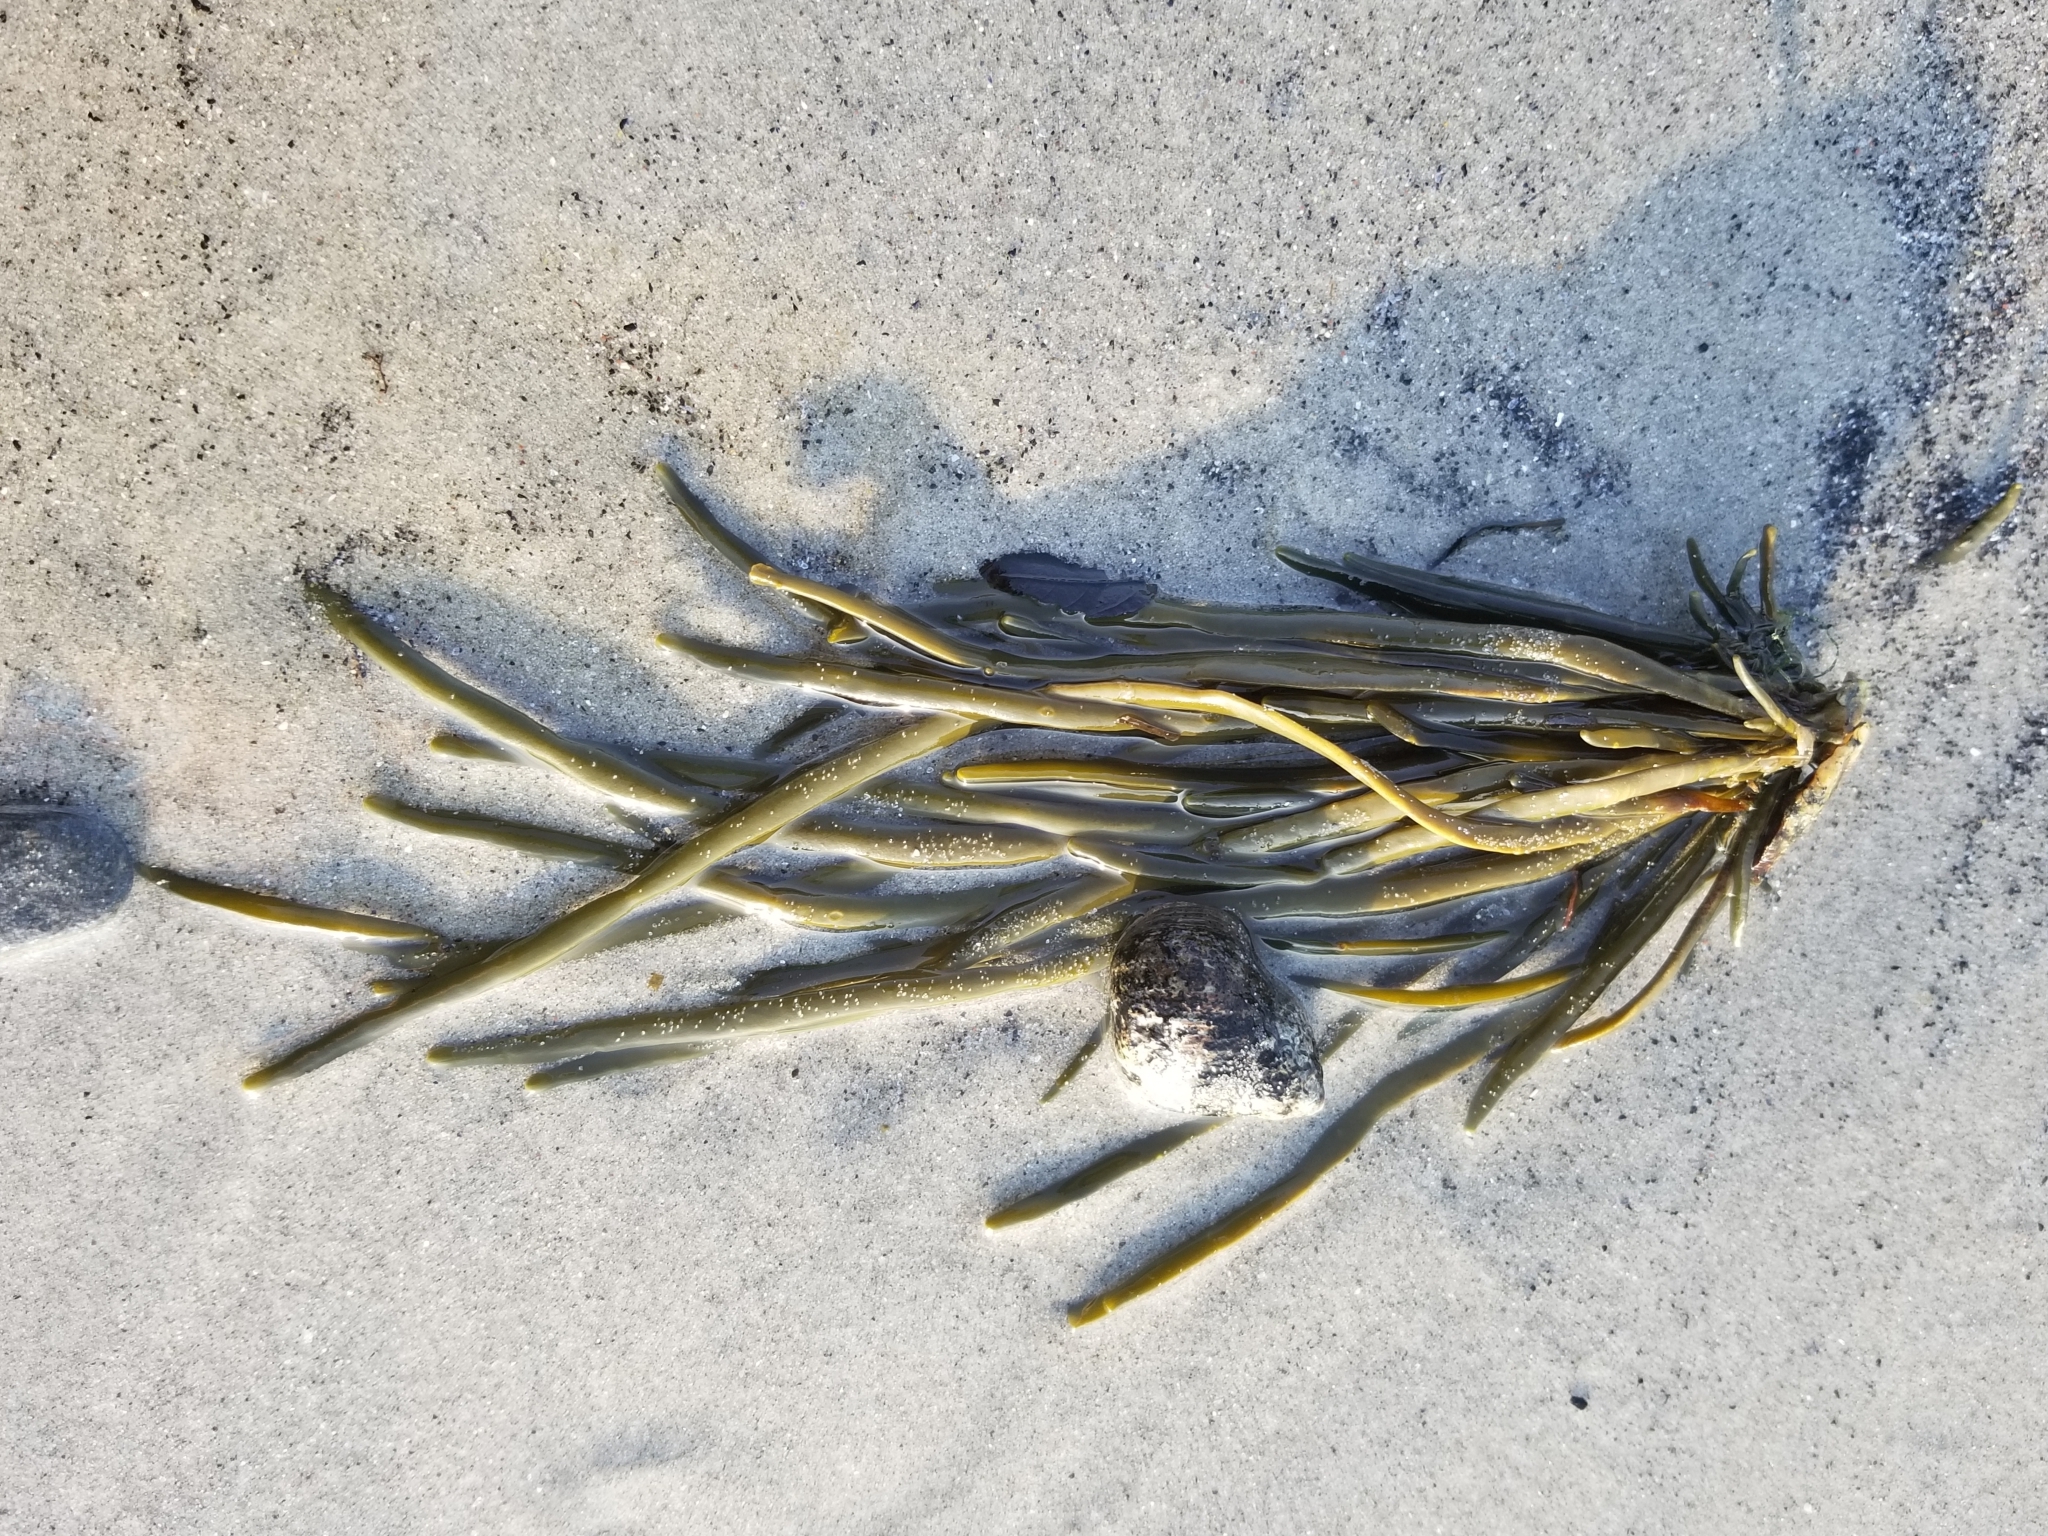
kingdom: Chromista
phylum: Ochrophyta
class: Phaeophyceae
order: Fucales
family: Fucaceae
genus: Ascophyllum
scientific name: Ascophyllum nodosum
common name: Knotted wrack
